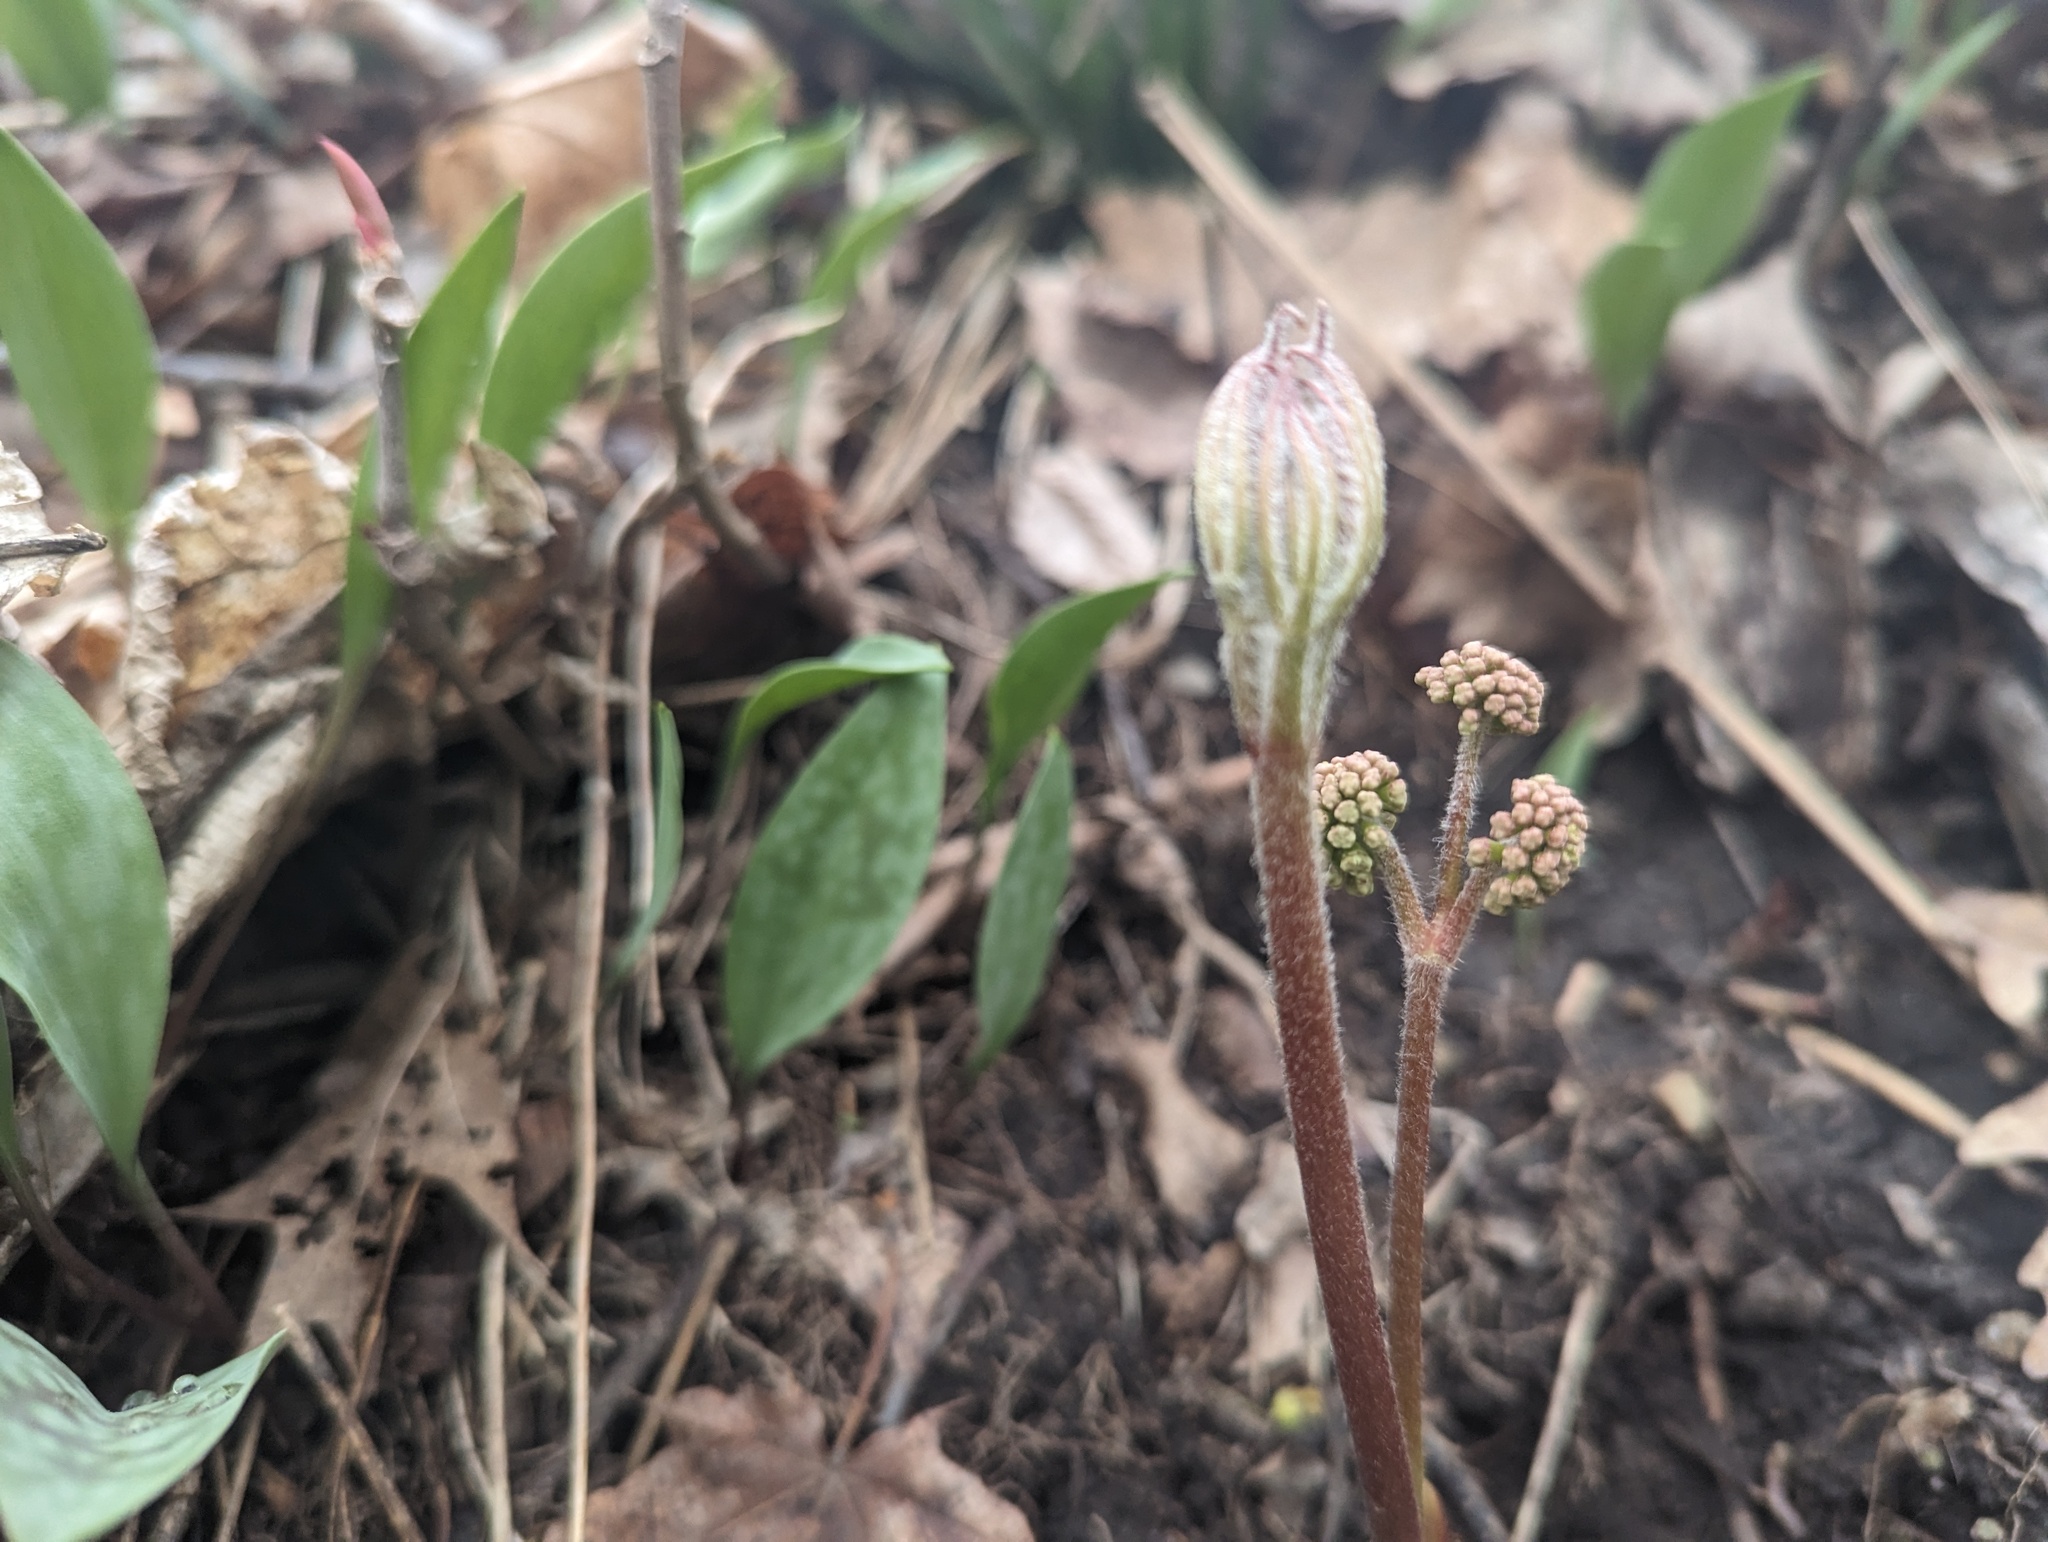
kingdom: Plantae
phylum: Tracheophyta
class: Magnoliopsida
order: Apiales
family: Araliaceae
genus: Aralia
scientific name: Aralia nudicaulis
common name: Wild sarsaparilla
